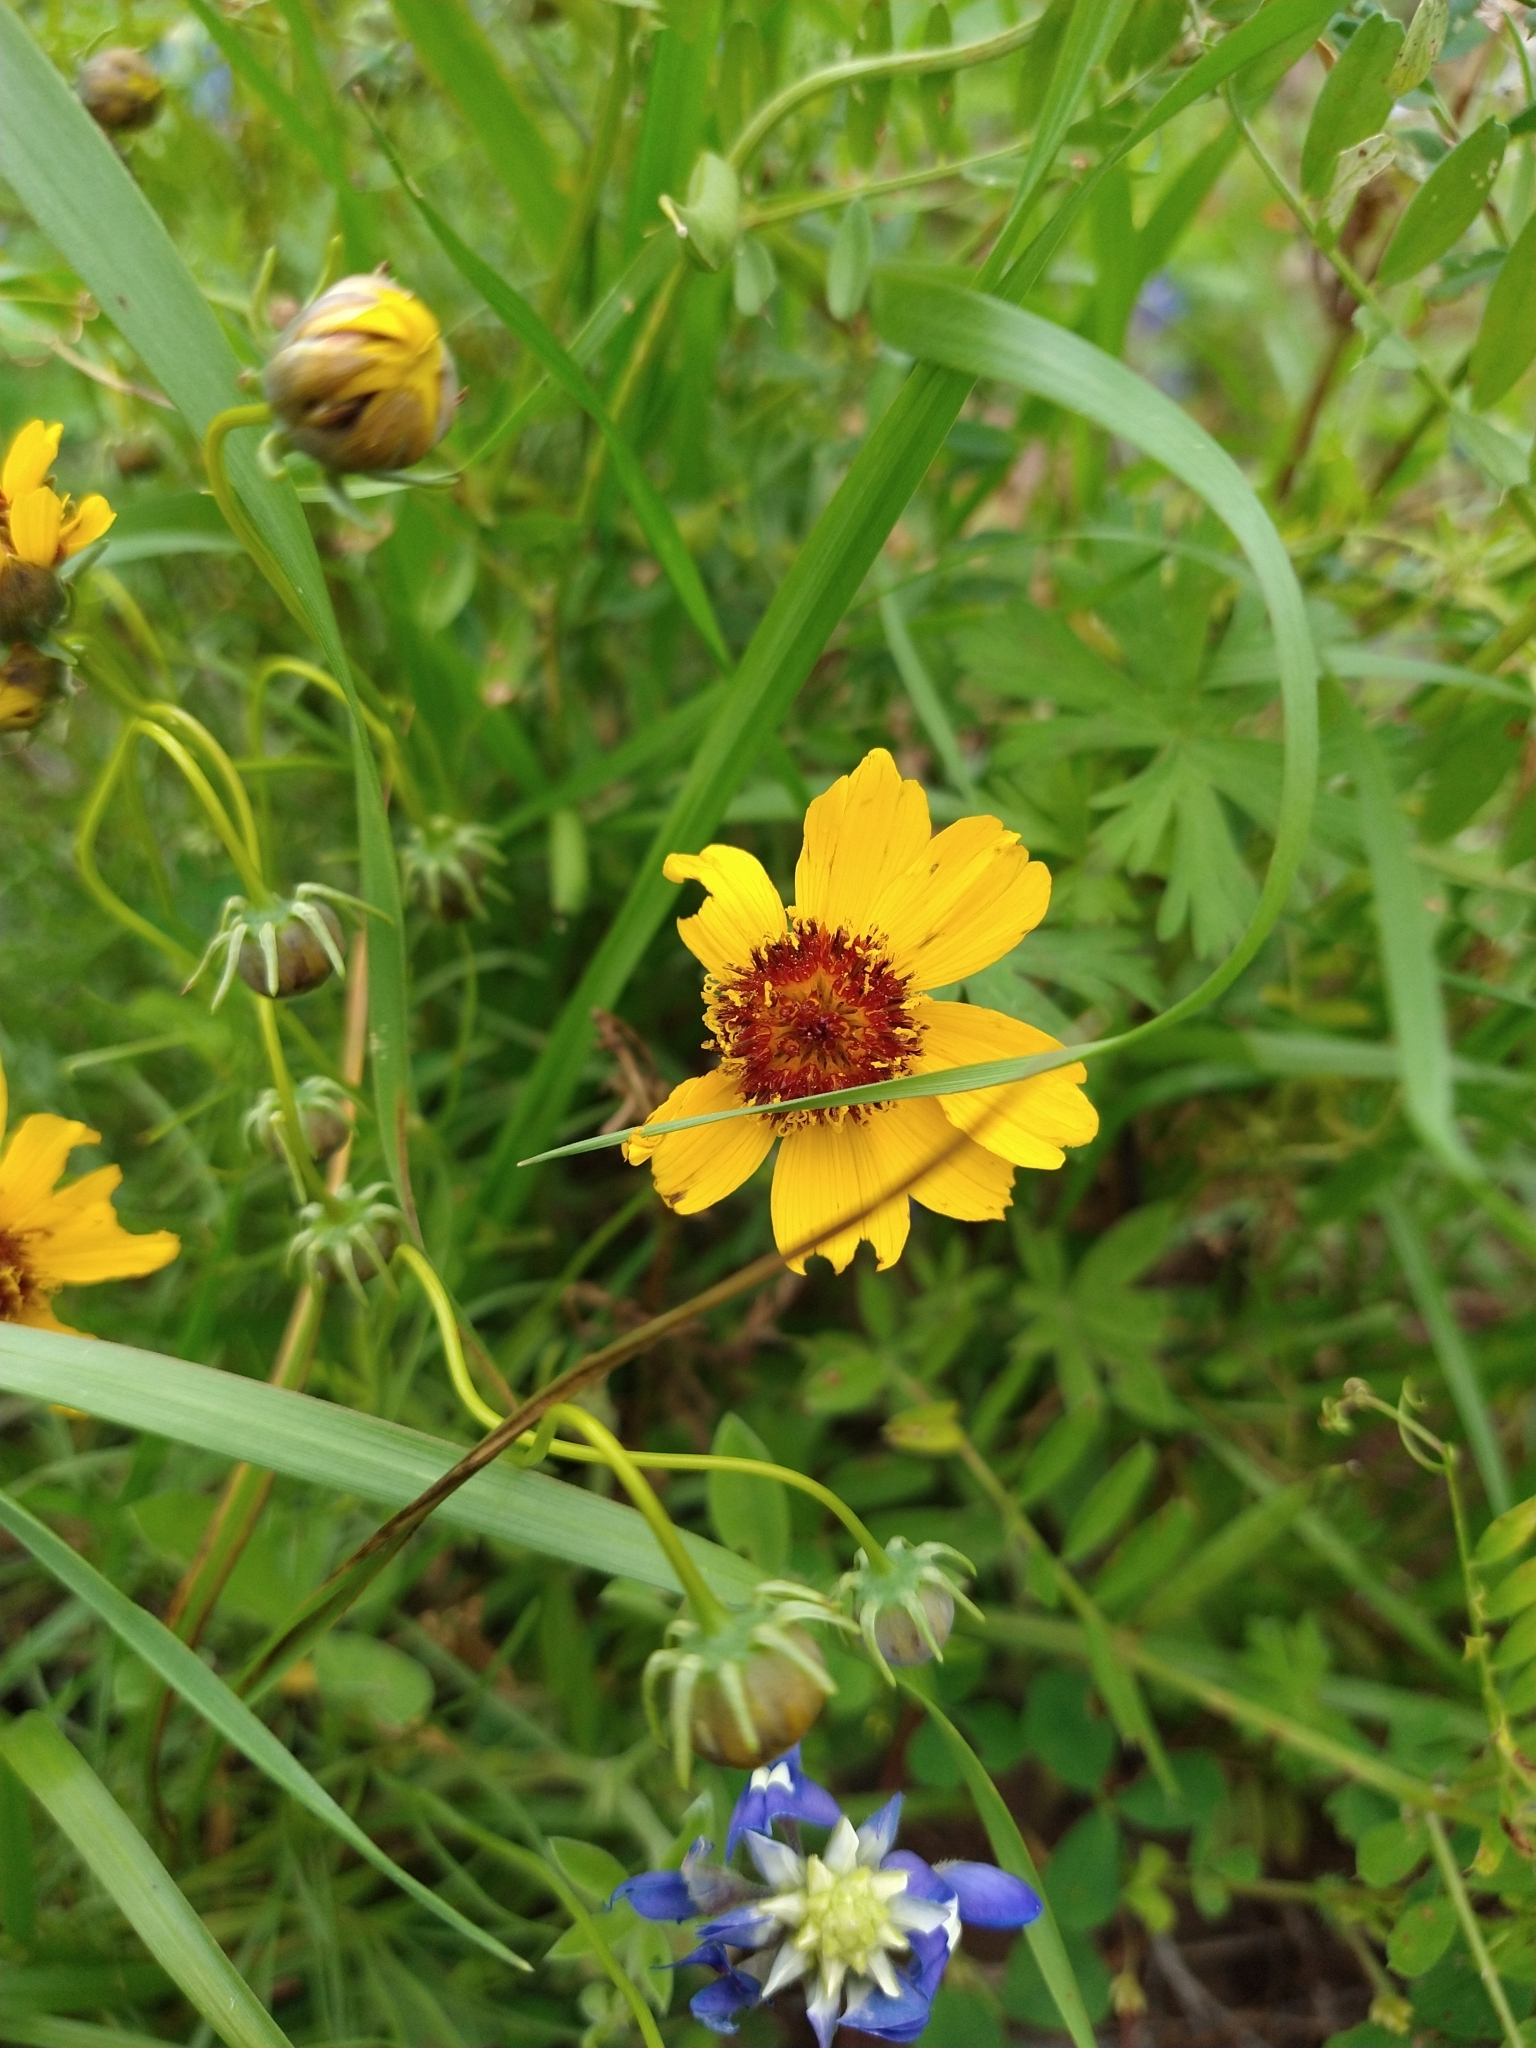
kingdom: Plantae
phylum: Tracheophyta
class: Magnoliopsida
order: Asterales
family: Asteraceae
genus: Thelesperma
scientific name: Thelesperma filifolium
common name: Stiff greenthread
